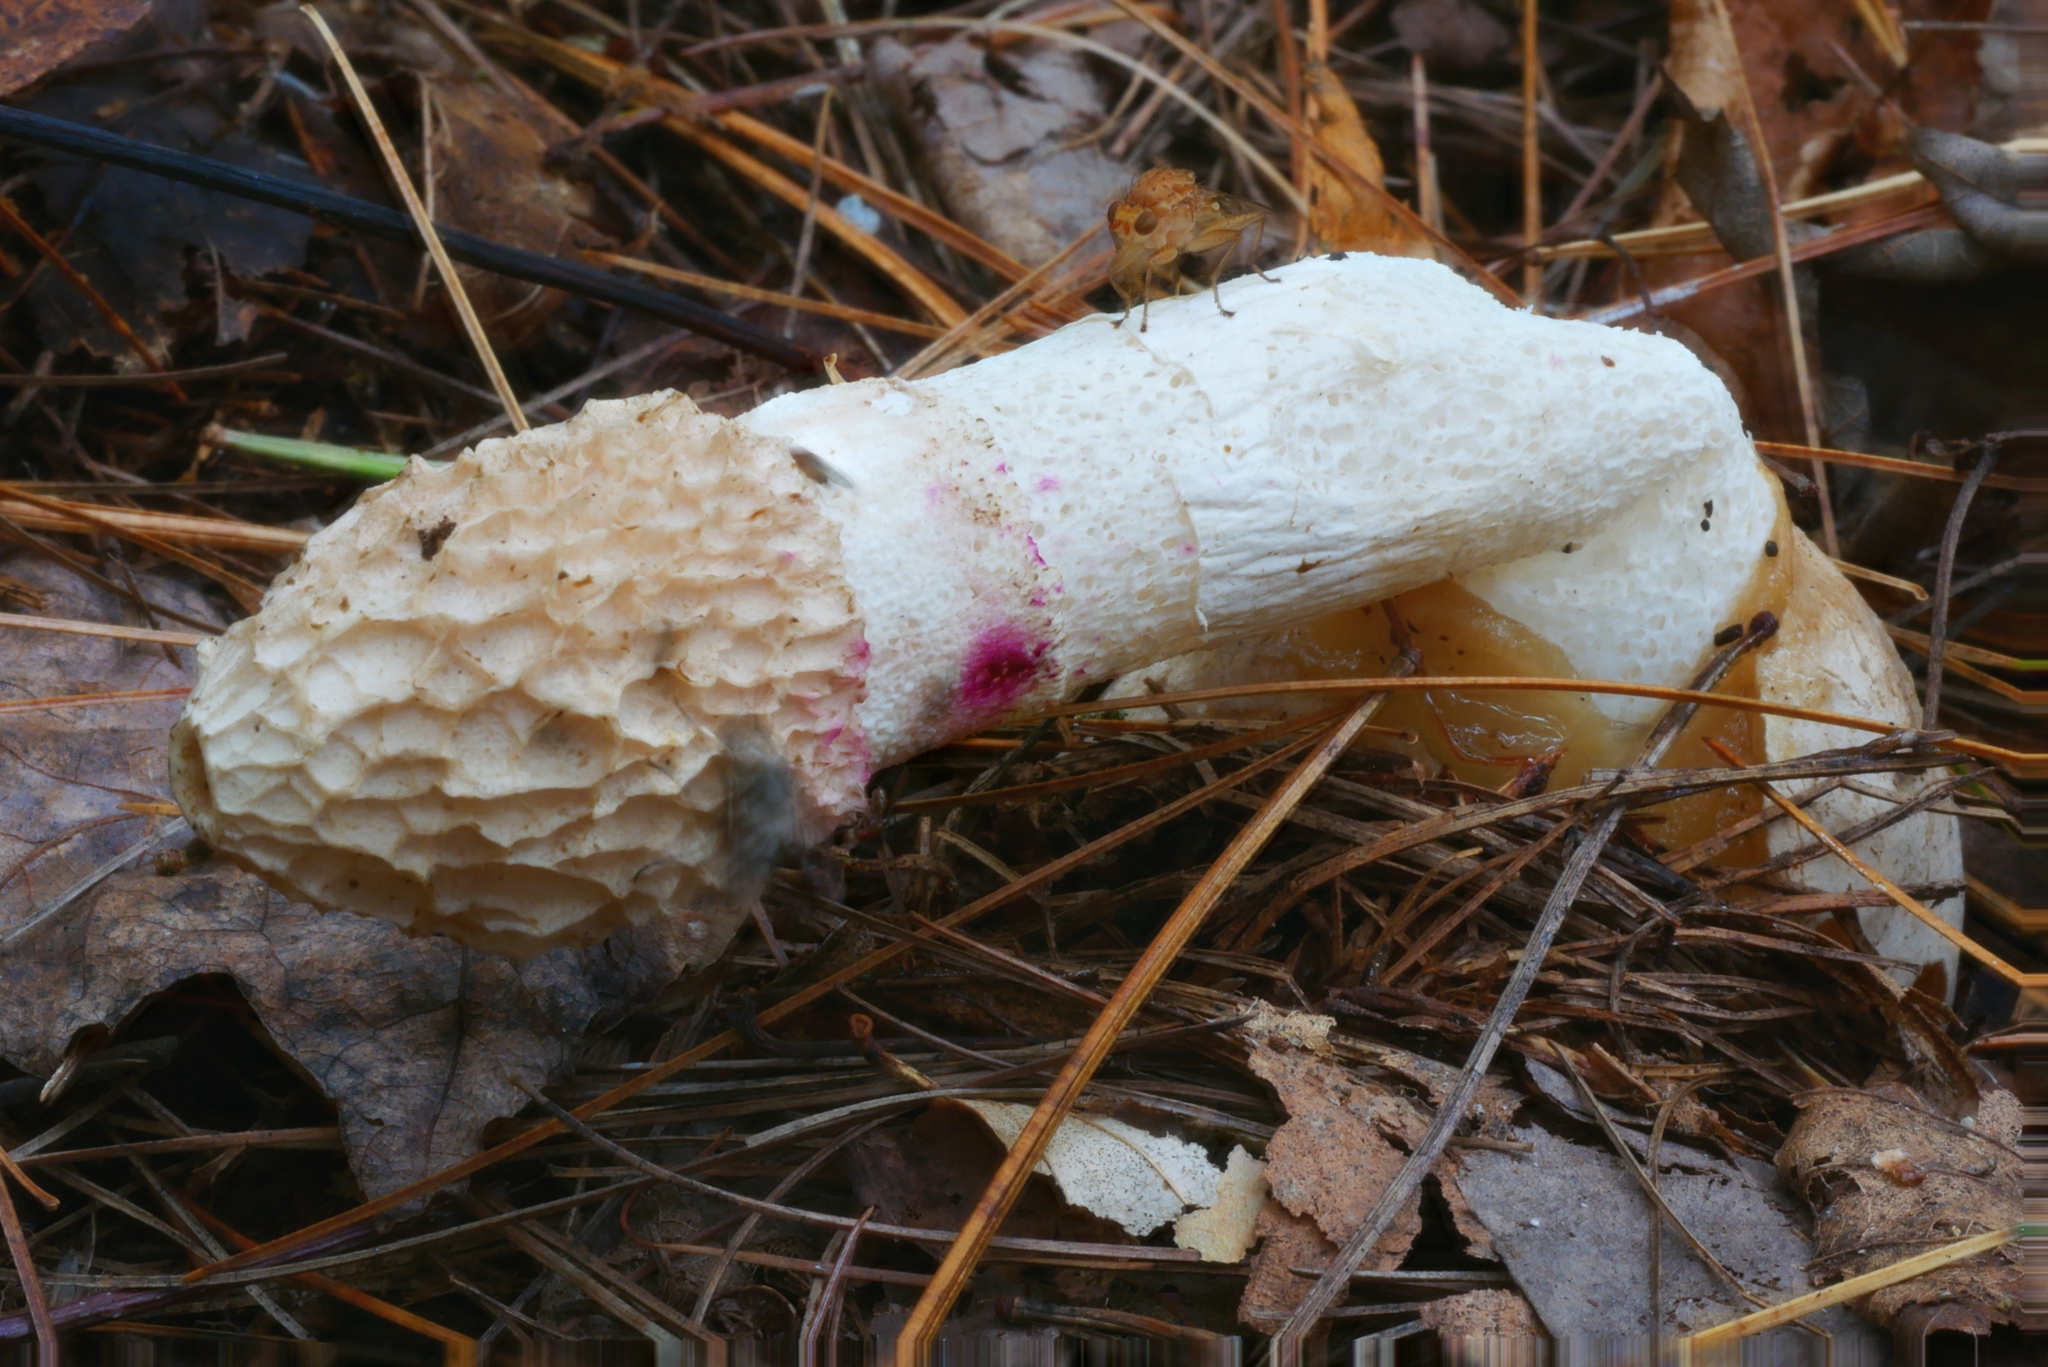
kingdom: Fungi
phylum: Basidiomycota
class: Agaricomycetes
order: Phallales
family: Phallaceae
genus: Phallus
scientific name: Phallus indusiatus
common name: Bridal veil stinkhorn
